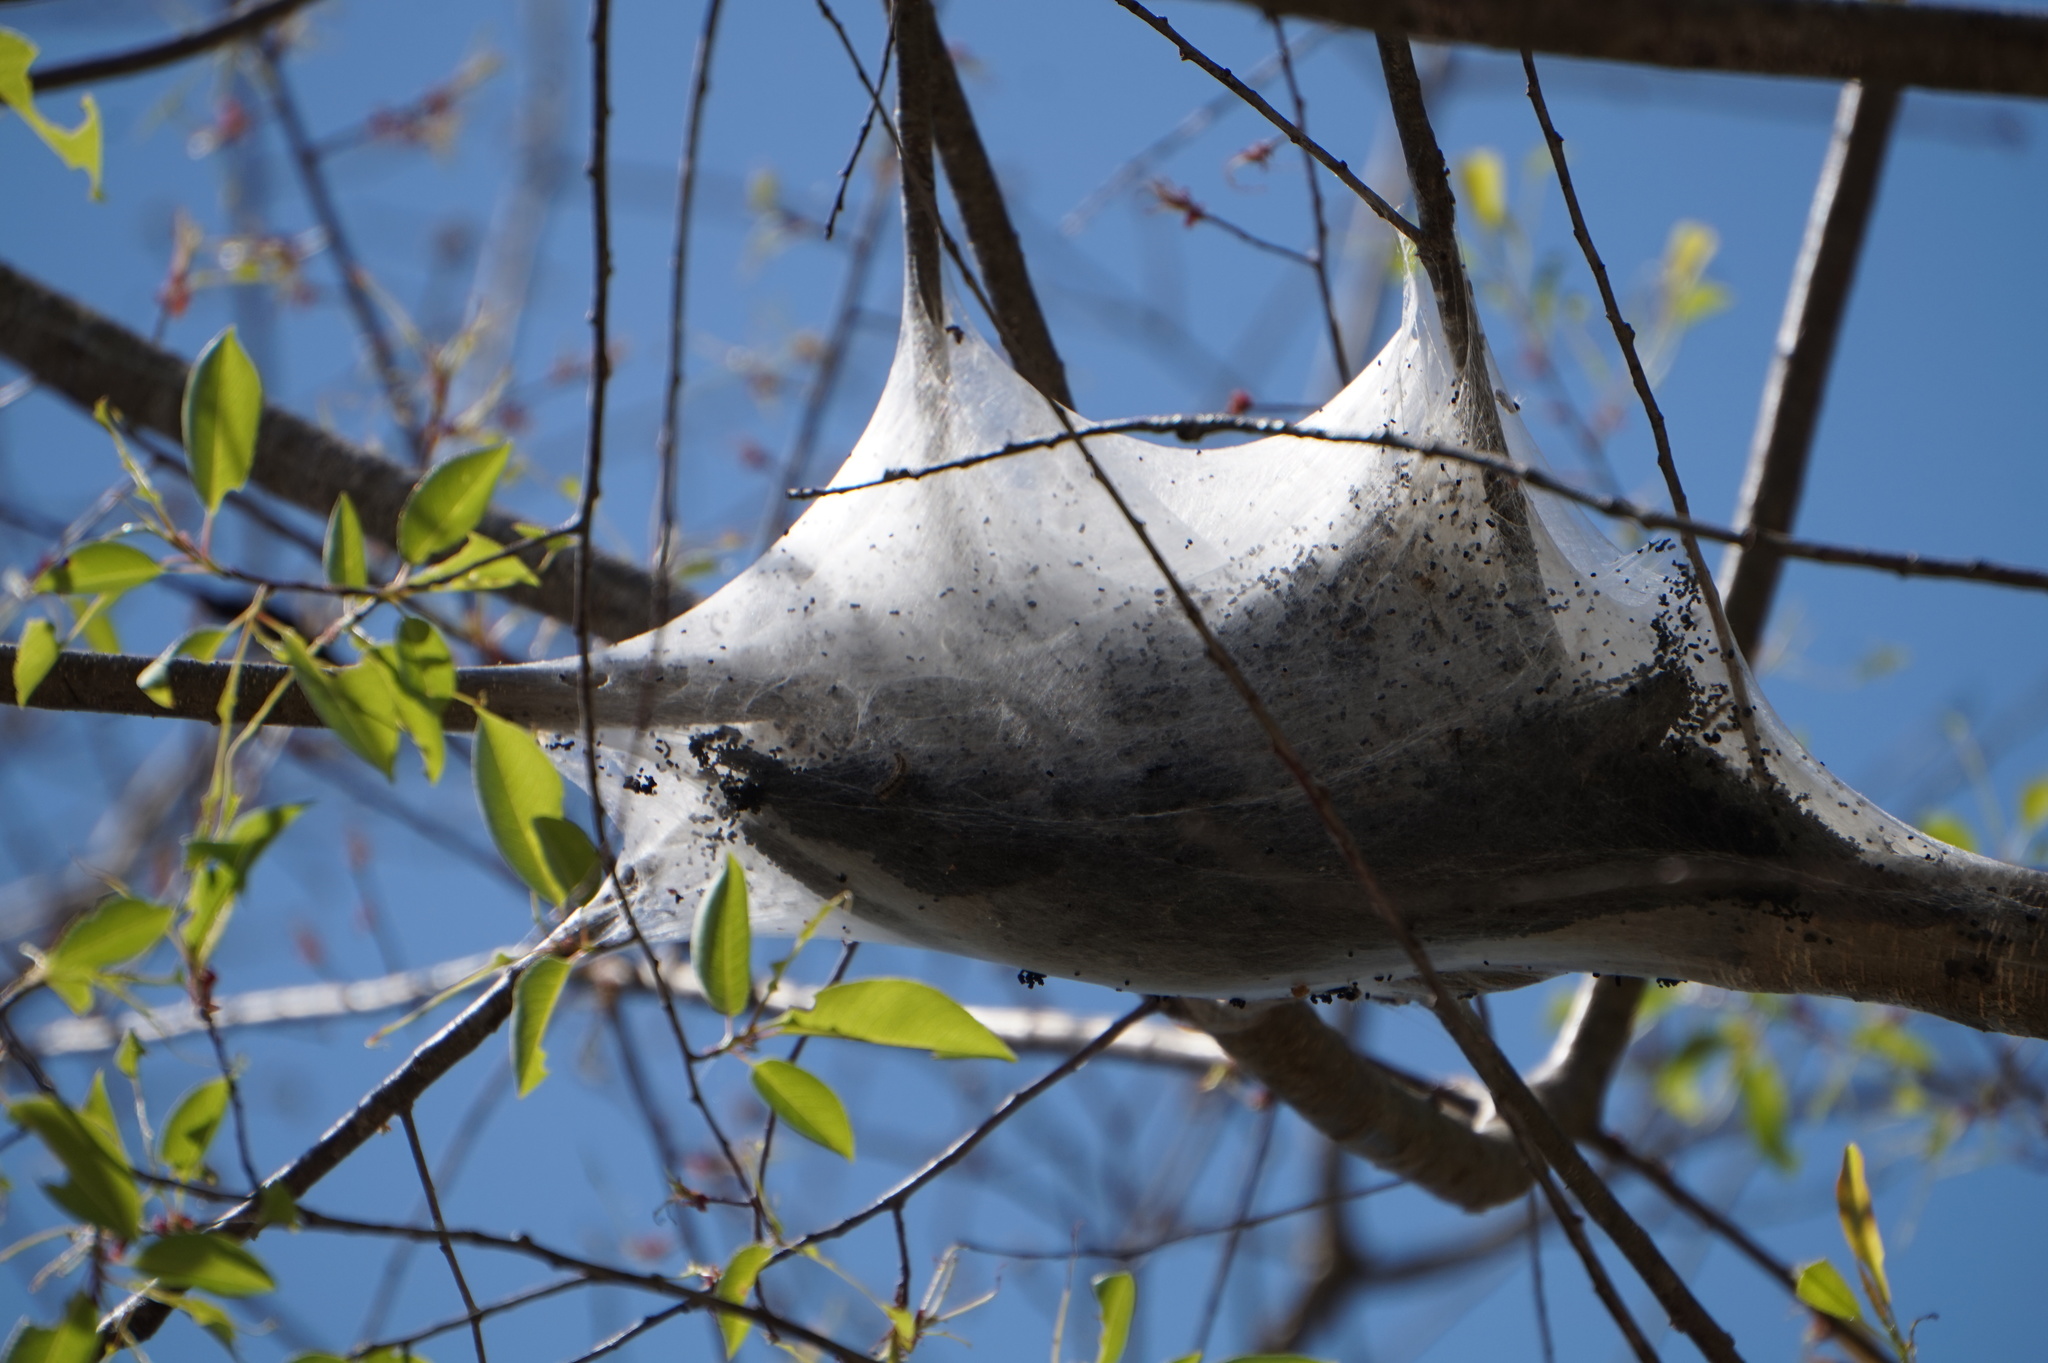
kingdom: Animalia
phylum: Arthropoda
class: Insecta
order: Lepidoptera
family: Lasiocampidae
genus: Malacosoma
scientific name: Malacosoma americana
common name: Eastern tent caterpillar moth
